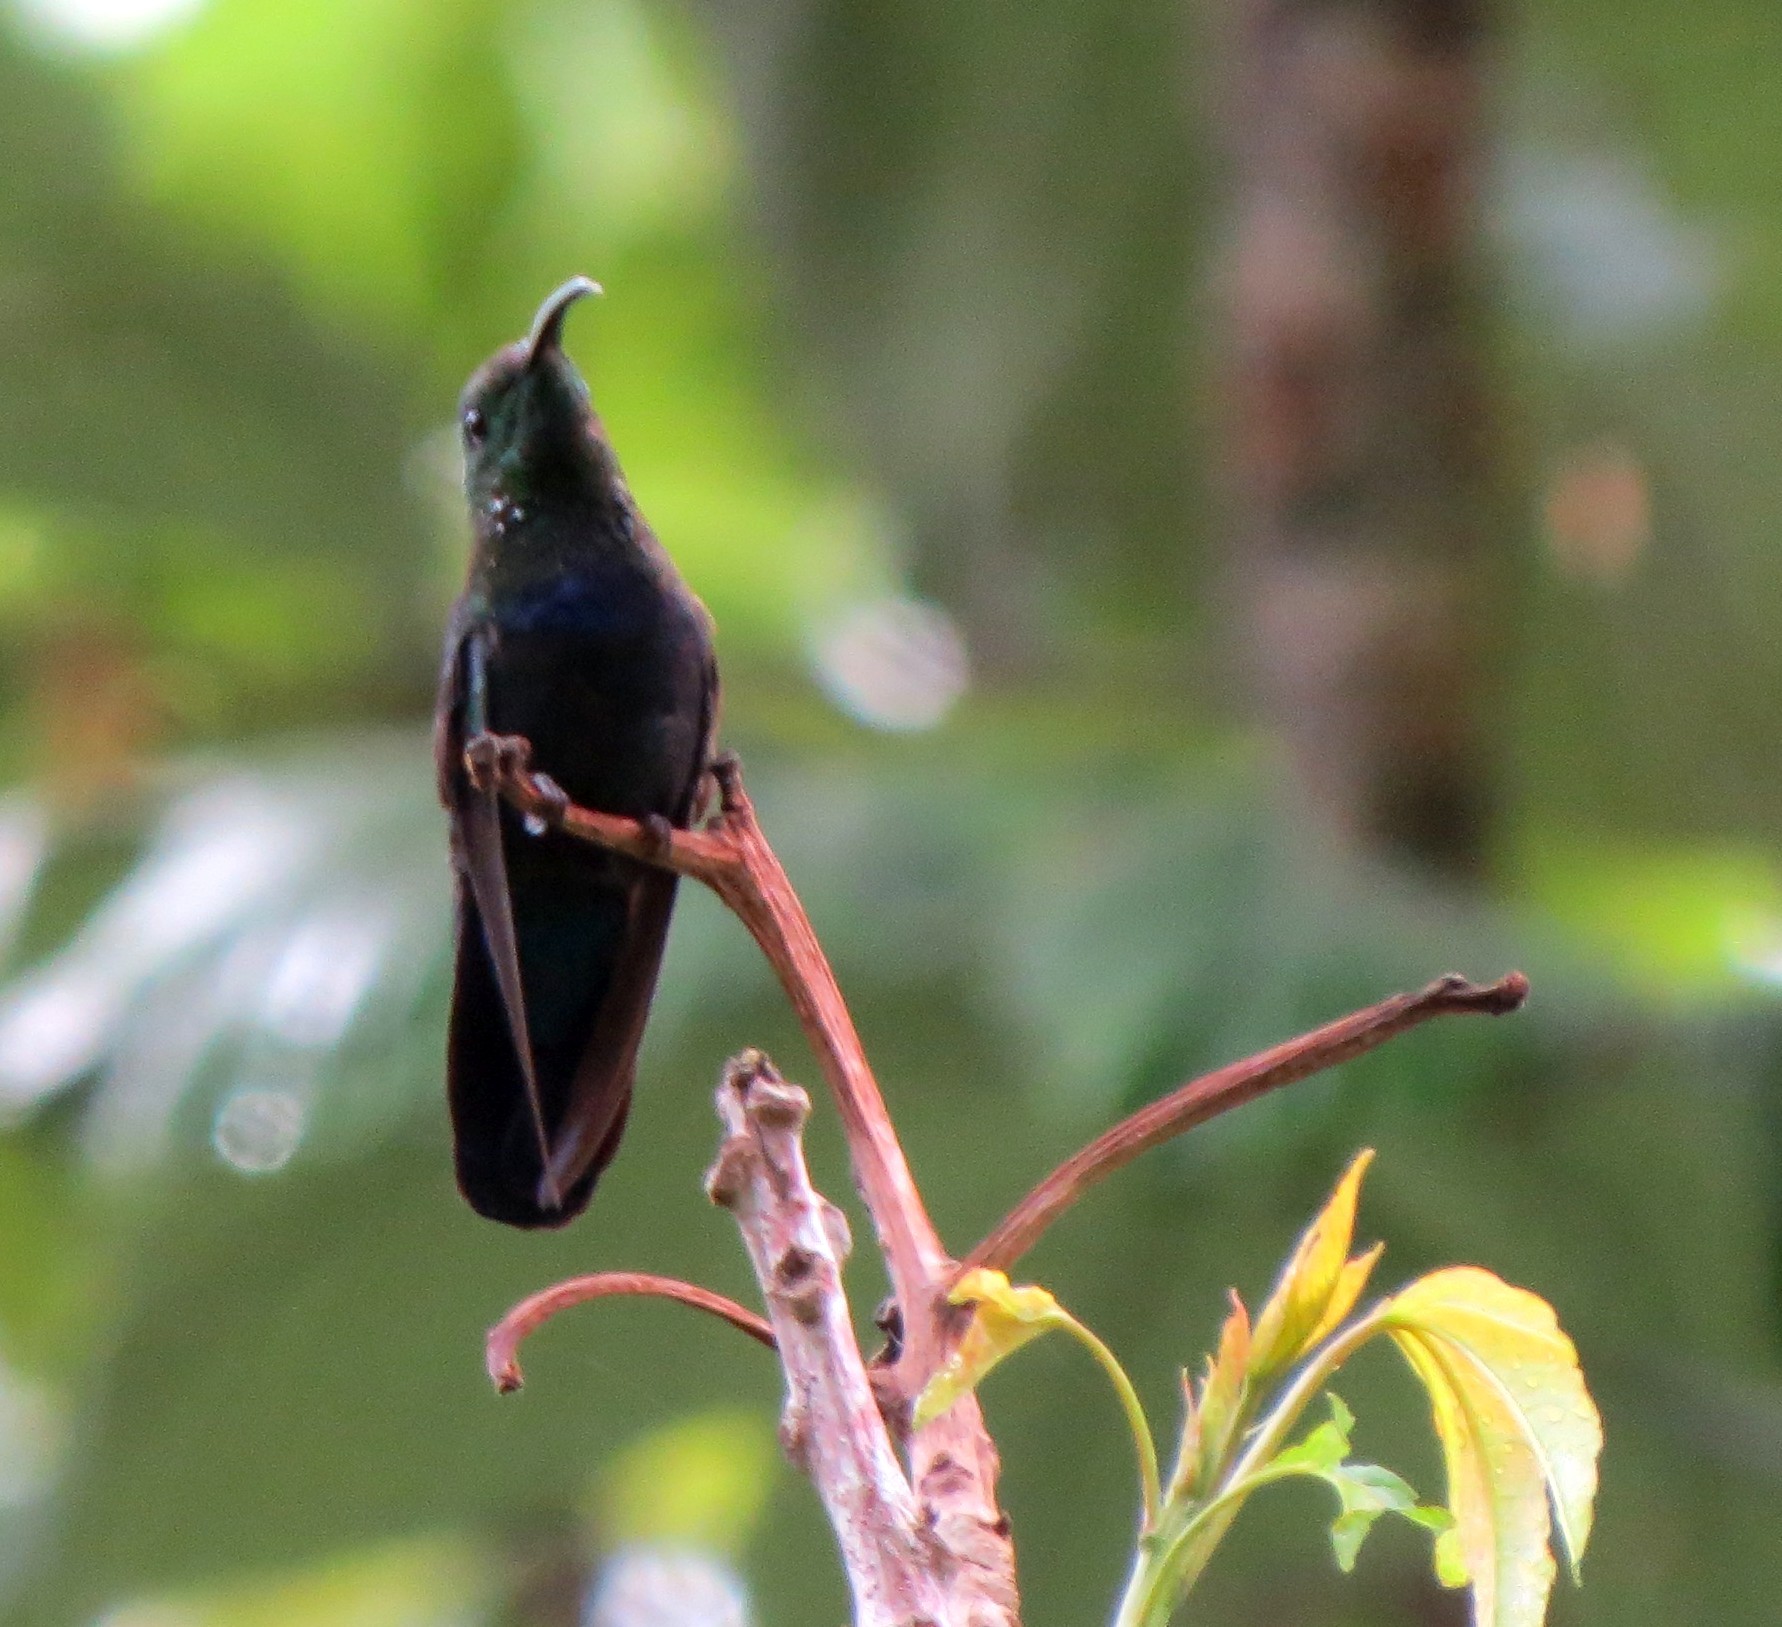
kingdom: Animalia
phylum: Chordata
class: Aves
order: Apodiformes
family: Trochilidae
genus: Eulampis
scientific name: Eulampis holosericeus
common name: Green-throated carib
